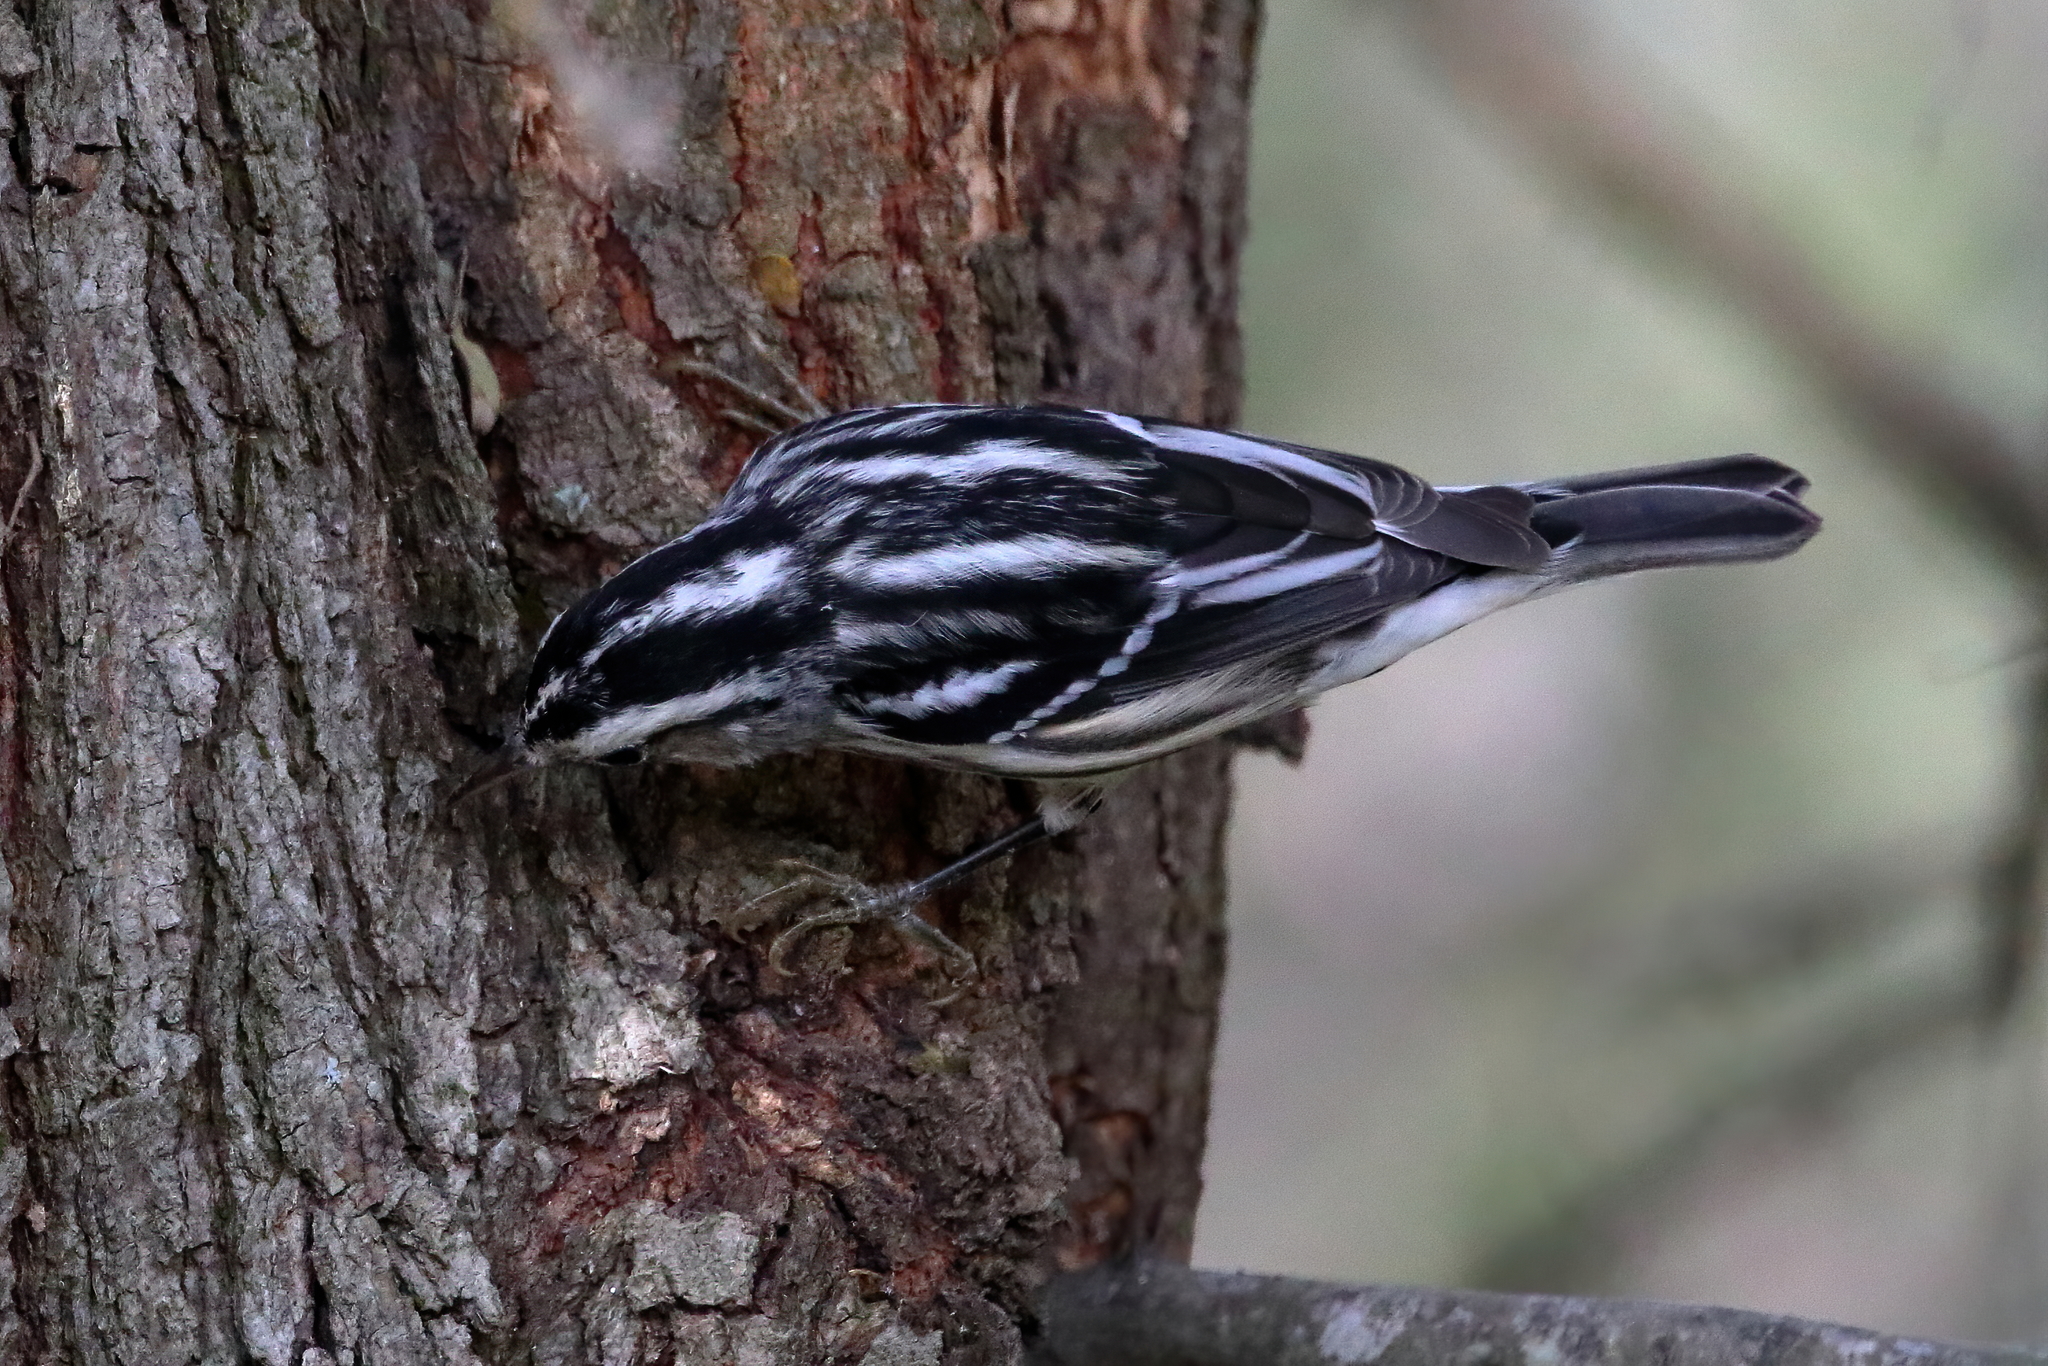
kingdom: Animalia
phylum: Chordata
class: Aves
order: Passeriformes
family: Parulidae
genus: Mniotilta
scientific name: Mniotilta varia
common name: Black-and-white warbler
